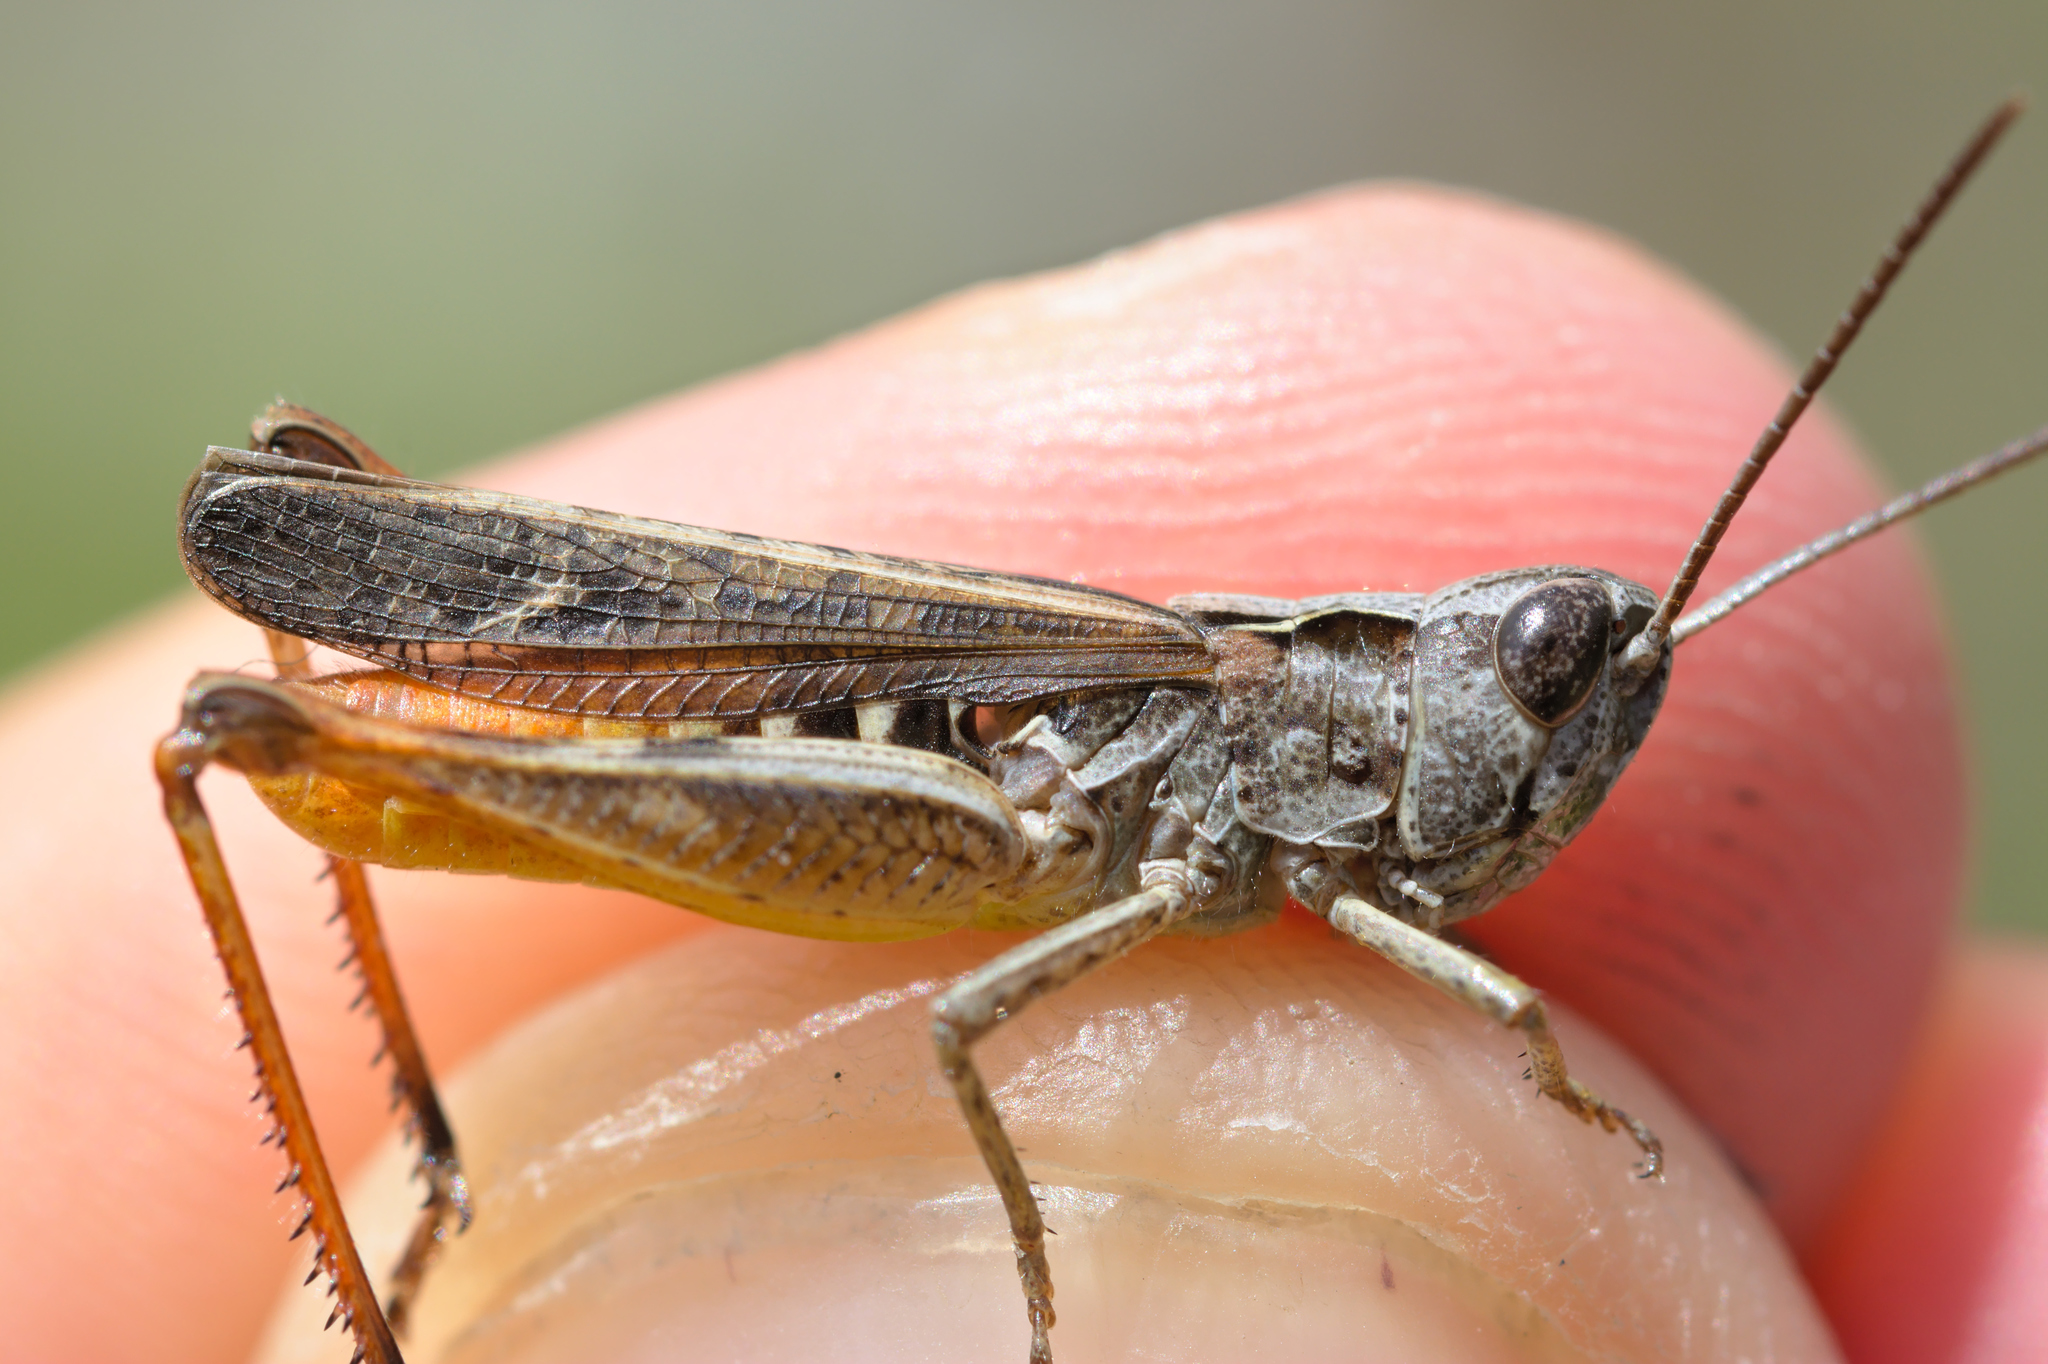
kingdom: Animalia
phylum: Arthropoda
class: Insecta
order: Orthoptera
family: Acrididae
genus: Chorthippus
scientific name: Chorthippus vagans
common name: Heath grasshopper
